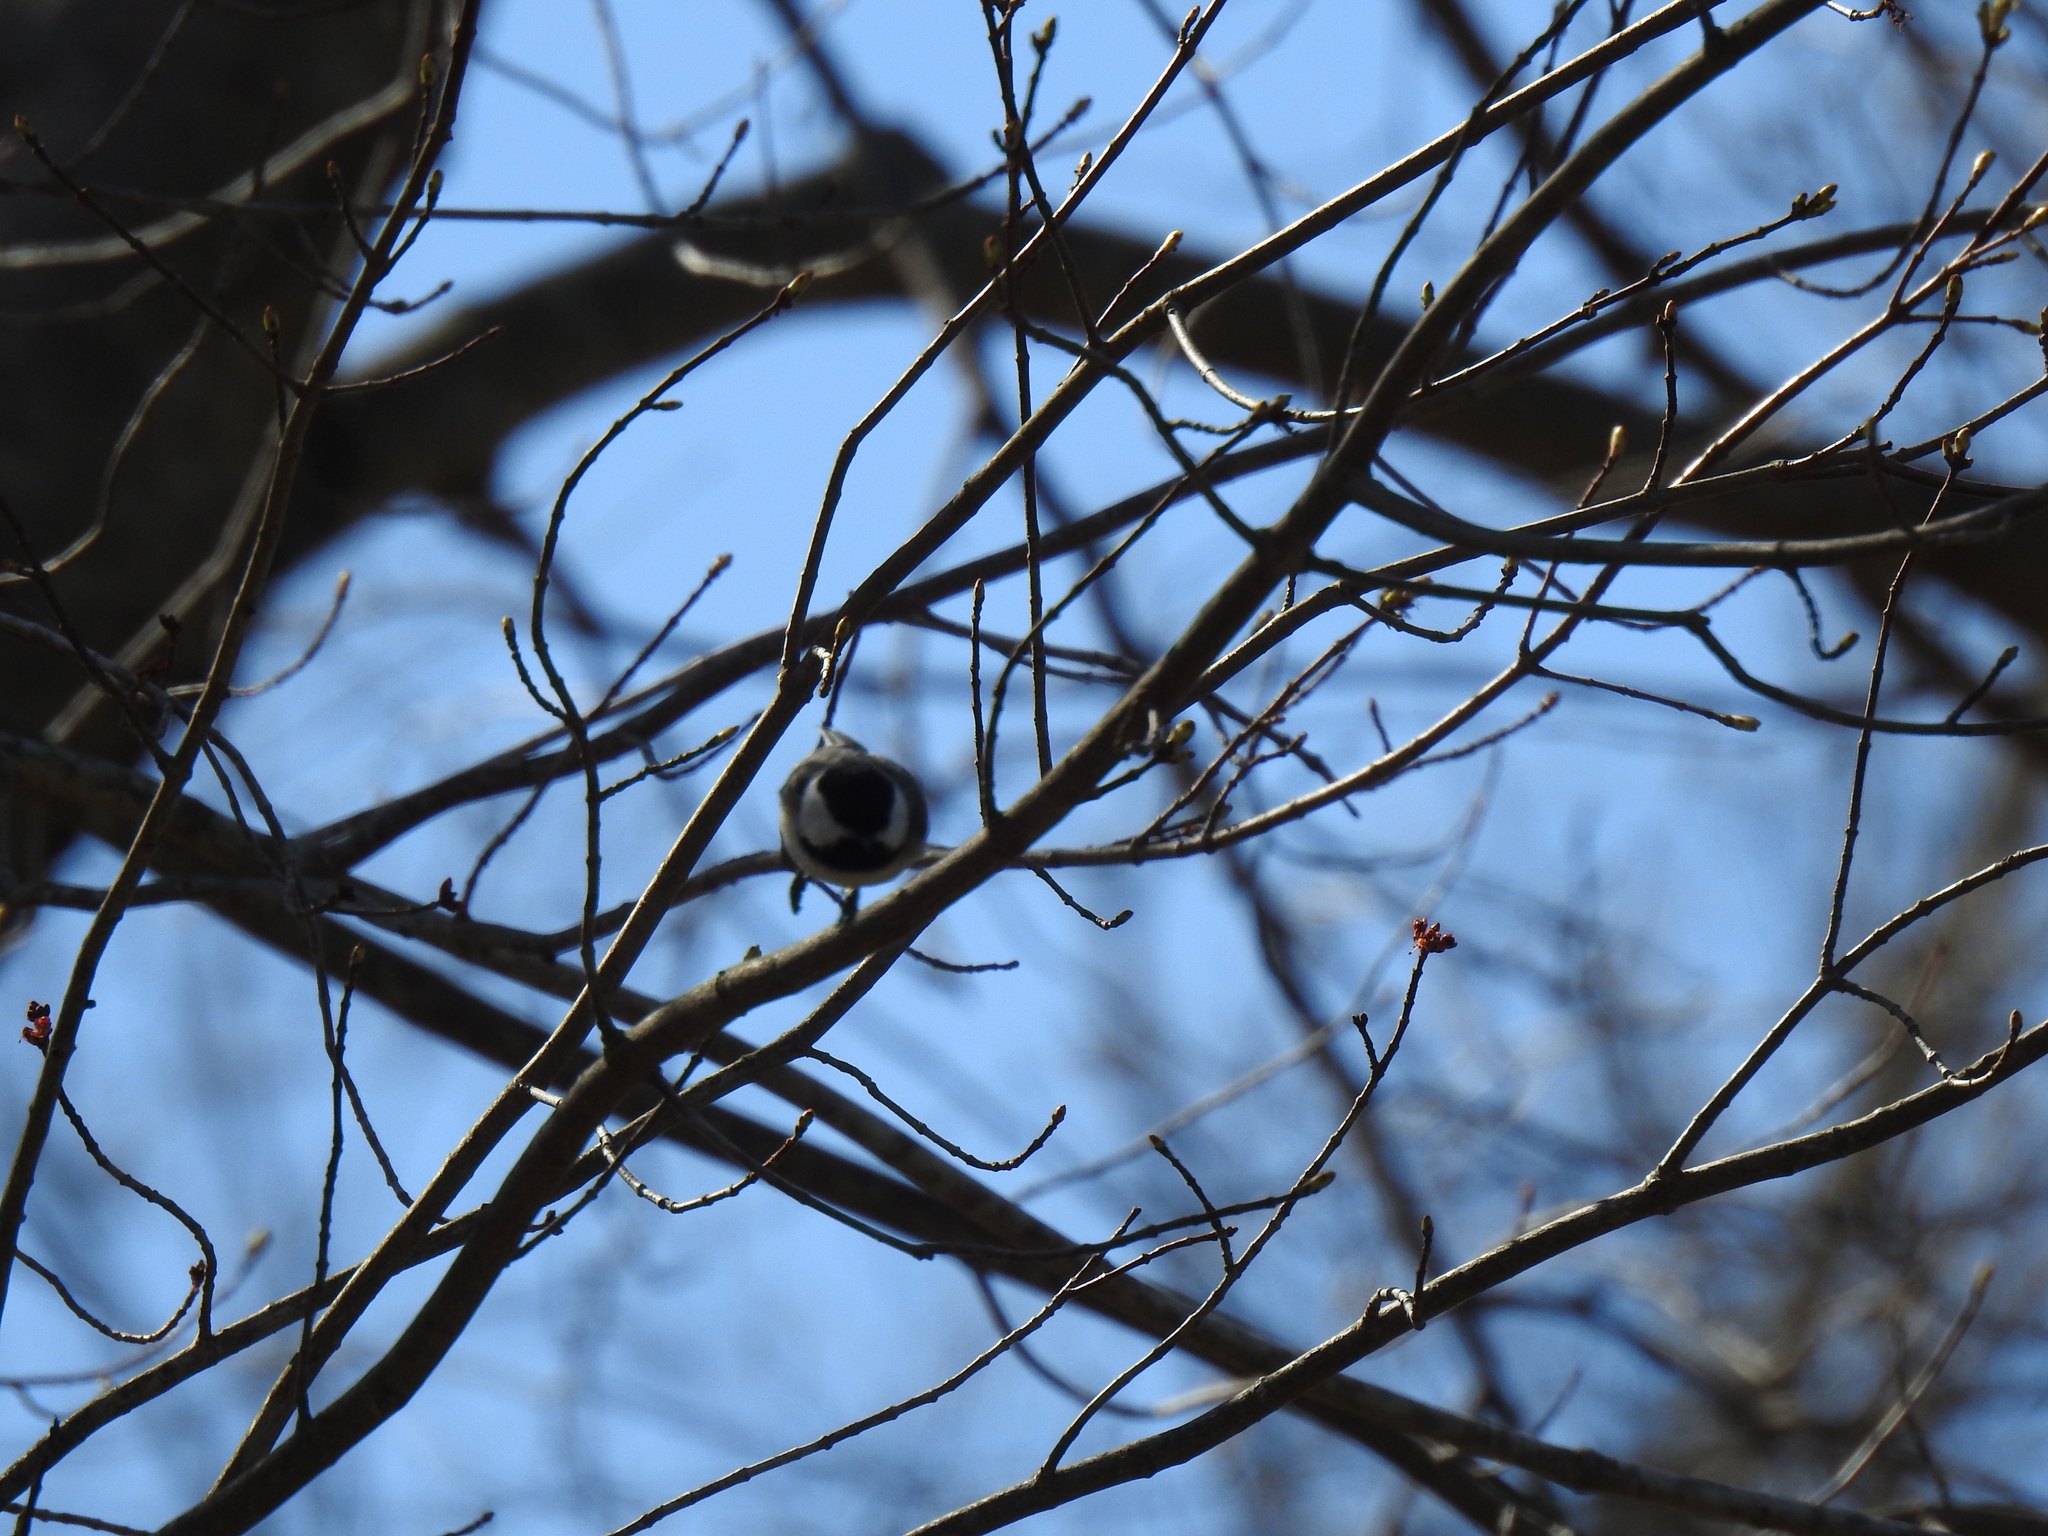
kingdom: Animalia
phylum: Chordata
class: Aves
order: Passeriformes
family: Paridae
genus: Poecile
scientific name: Poecile atricapillus
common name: Black-capped chickadee
